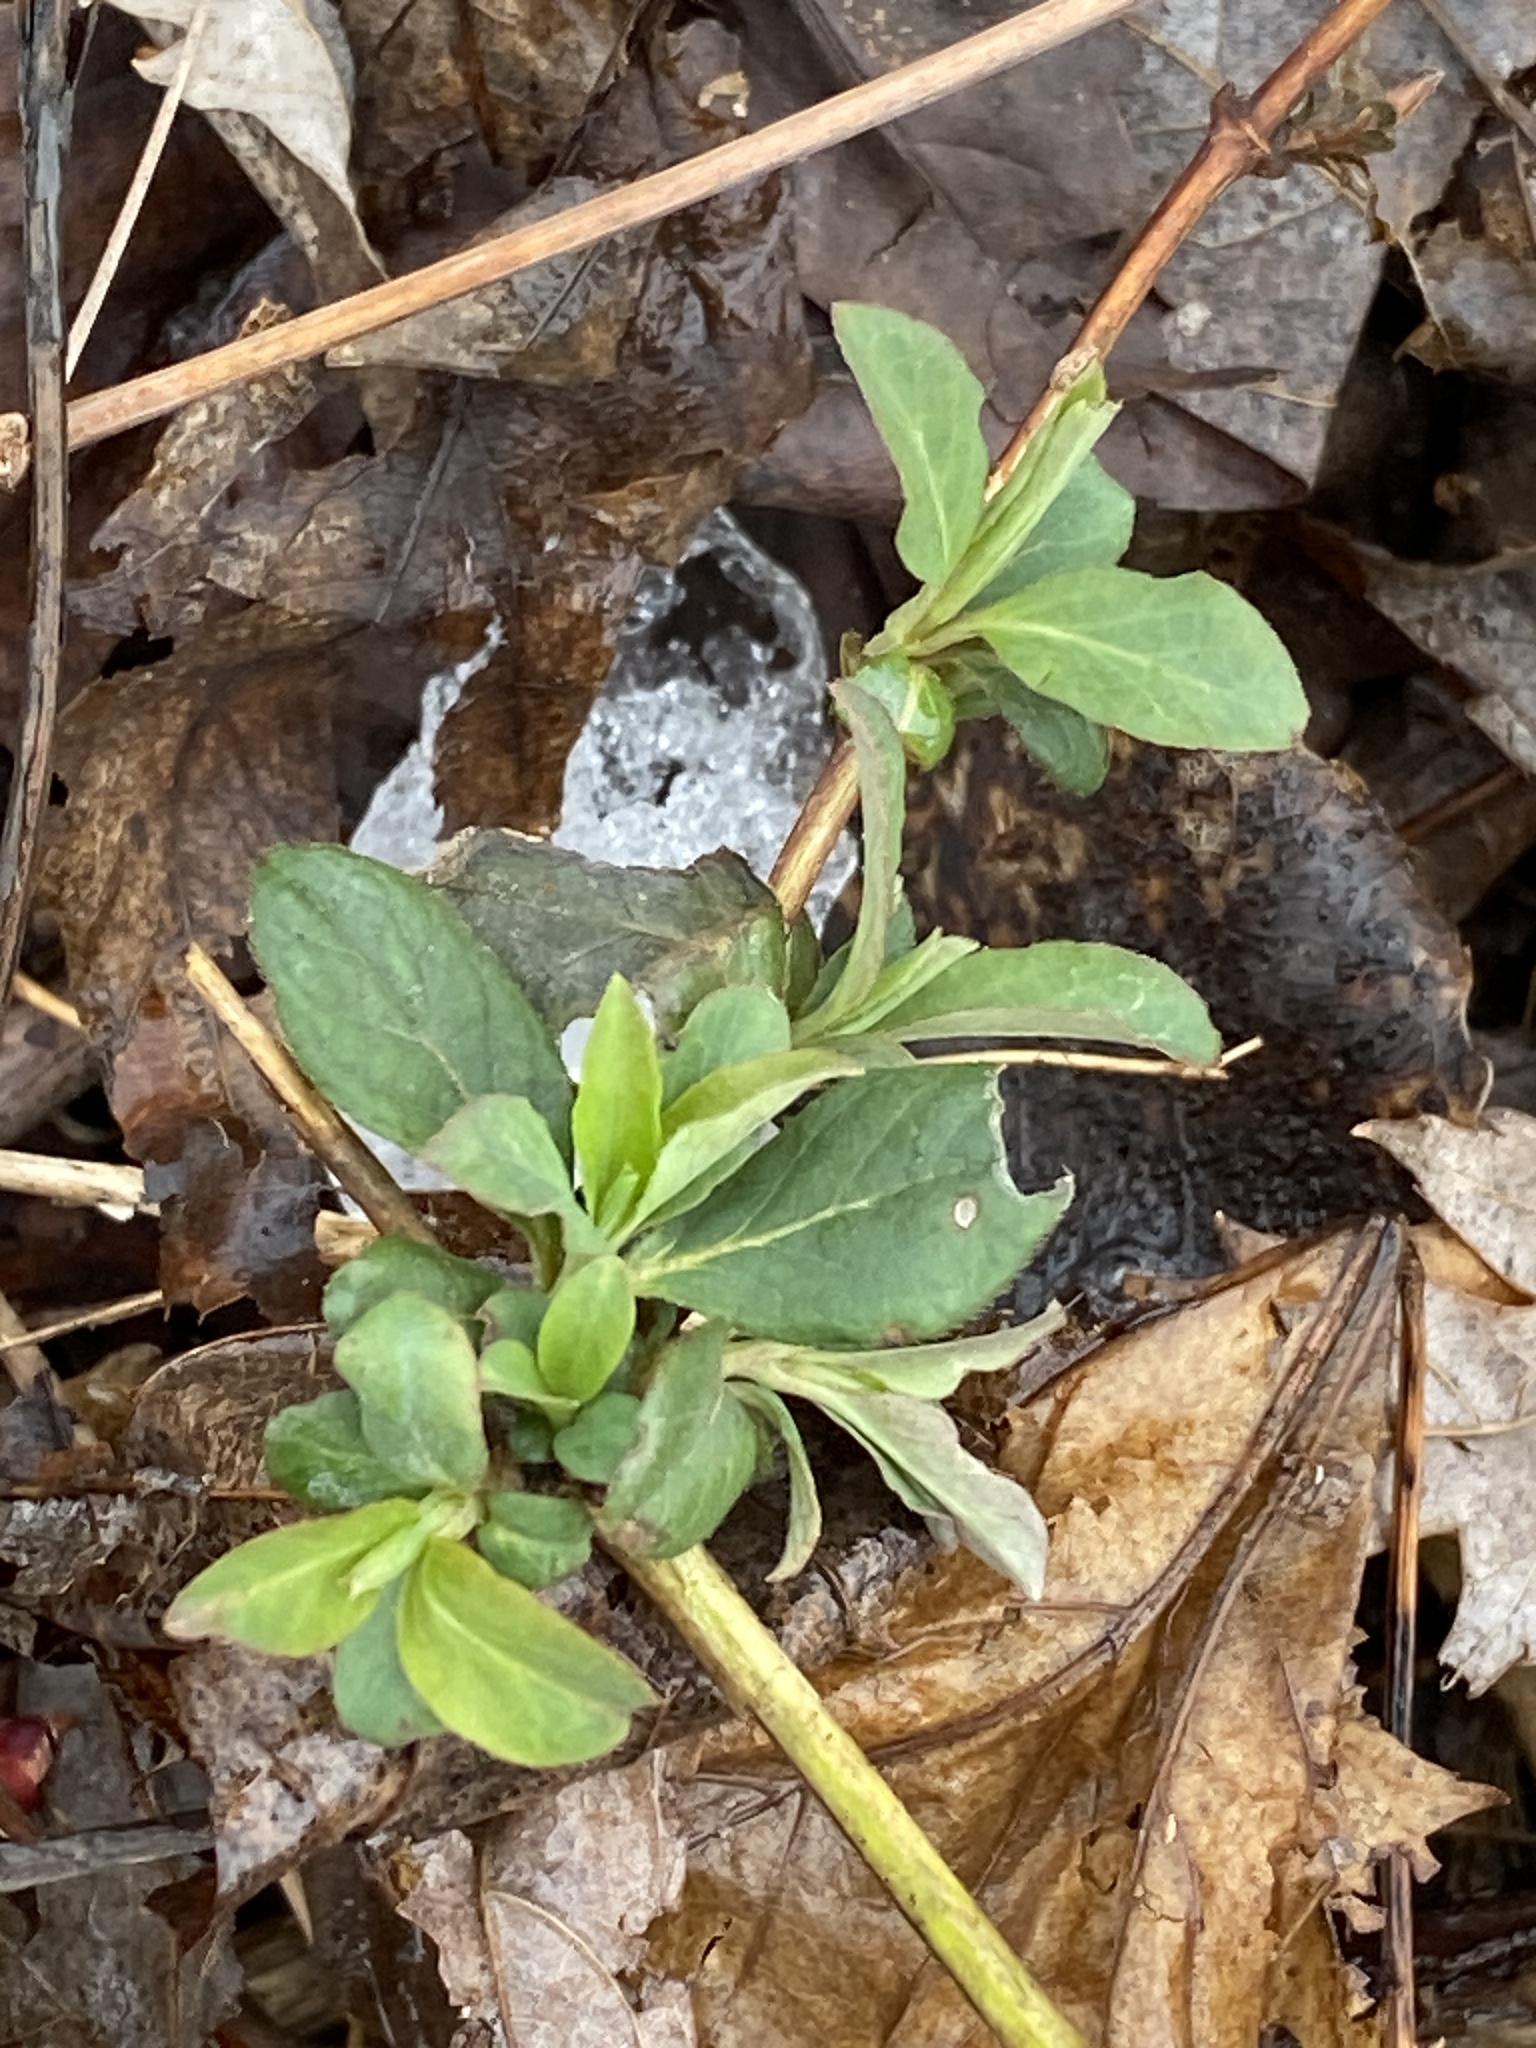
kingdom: Plantae
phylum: Tracheophyta
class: Magnoliopsida
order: Dipsacales
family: Caprifoliaceae
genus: Lonicera
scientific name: Lonicera japonica
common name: Japanese honeysuckle
